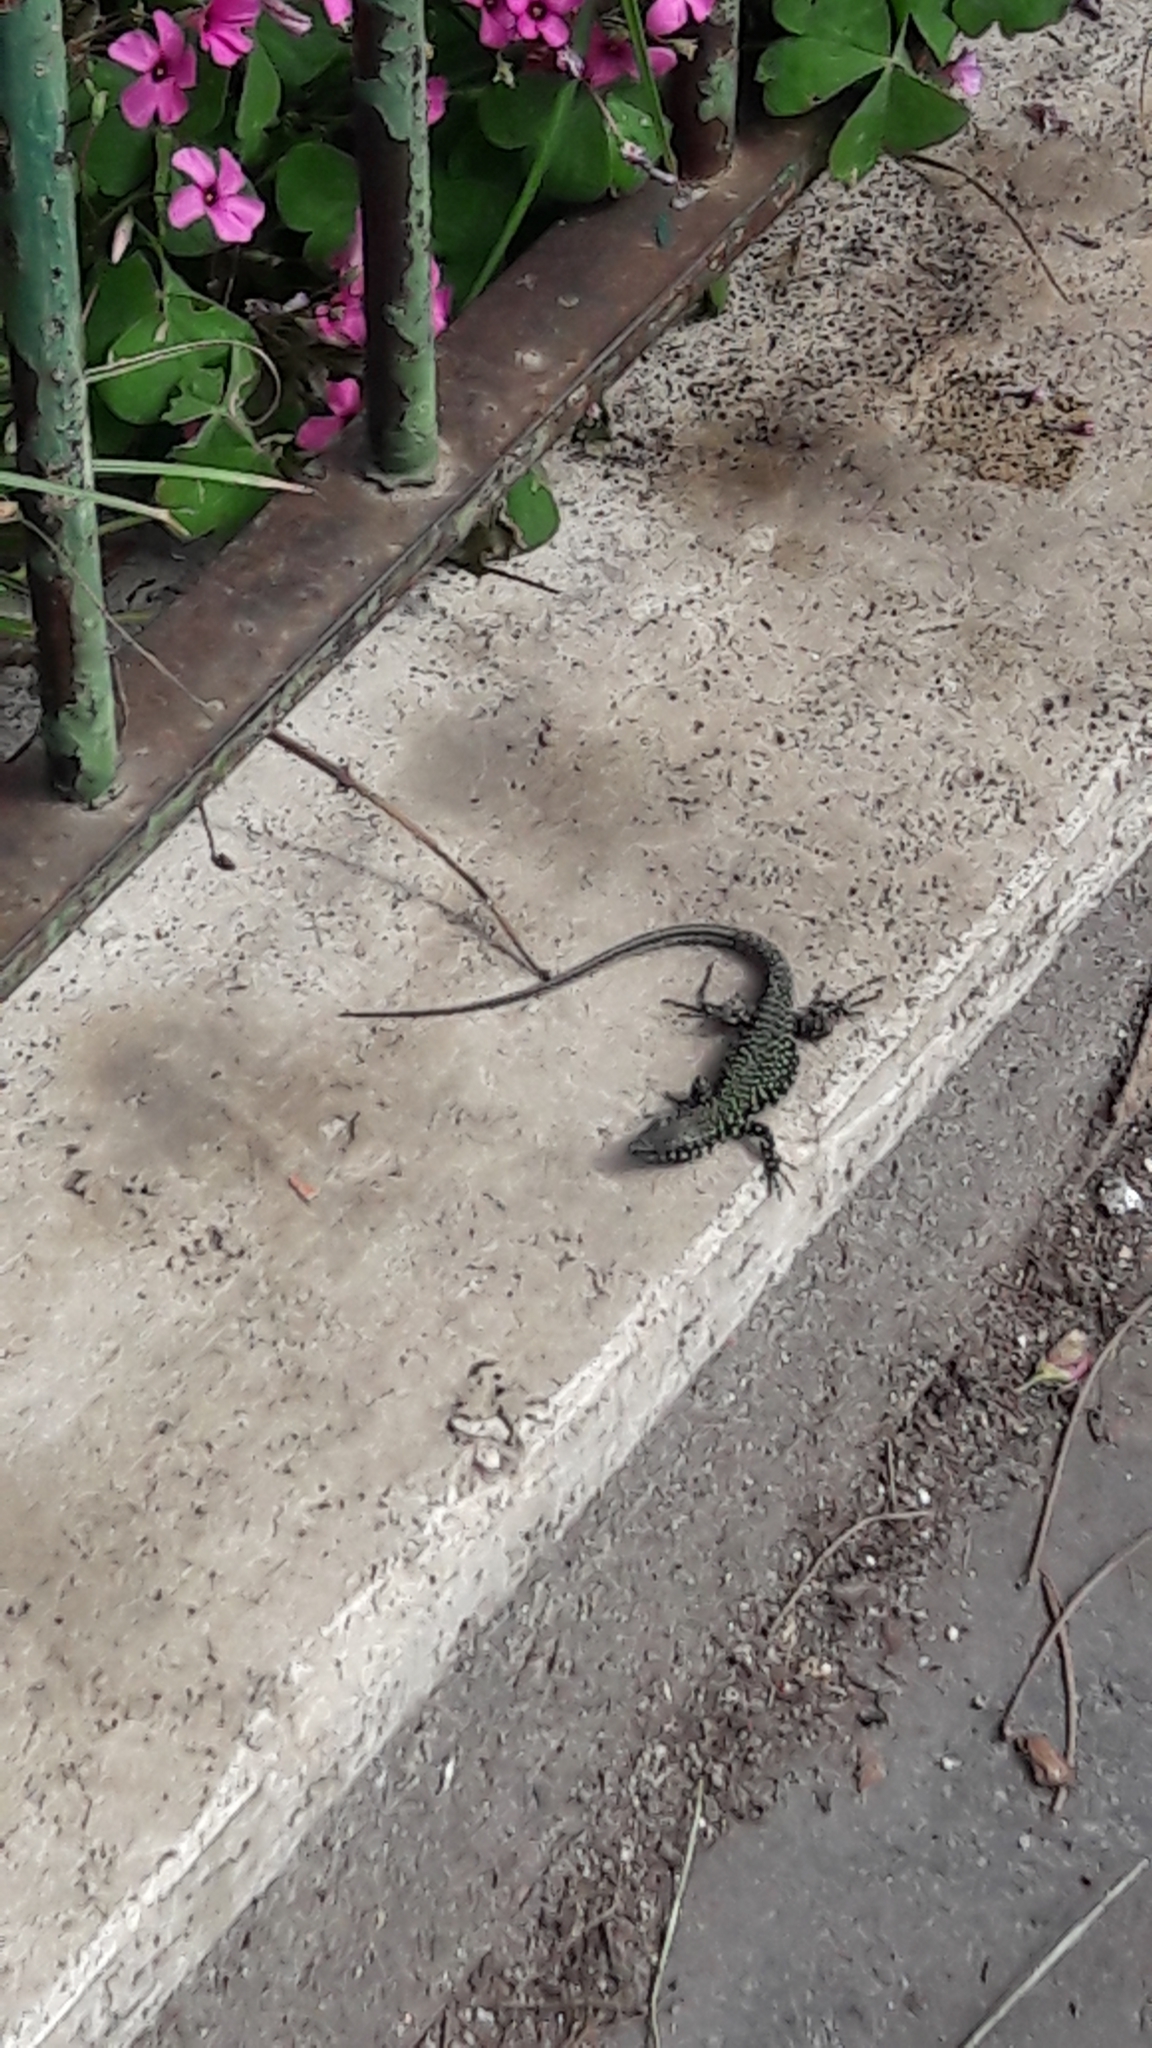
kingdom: Animalia
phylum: Chordata
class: Squamata
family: Lacertidae
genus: Podarcis
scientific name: Podarcis muralis
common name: Common wall lizard
